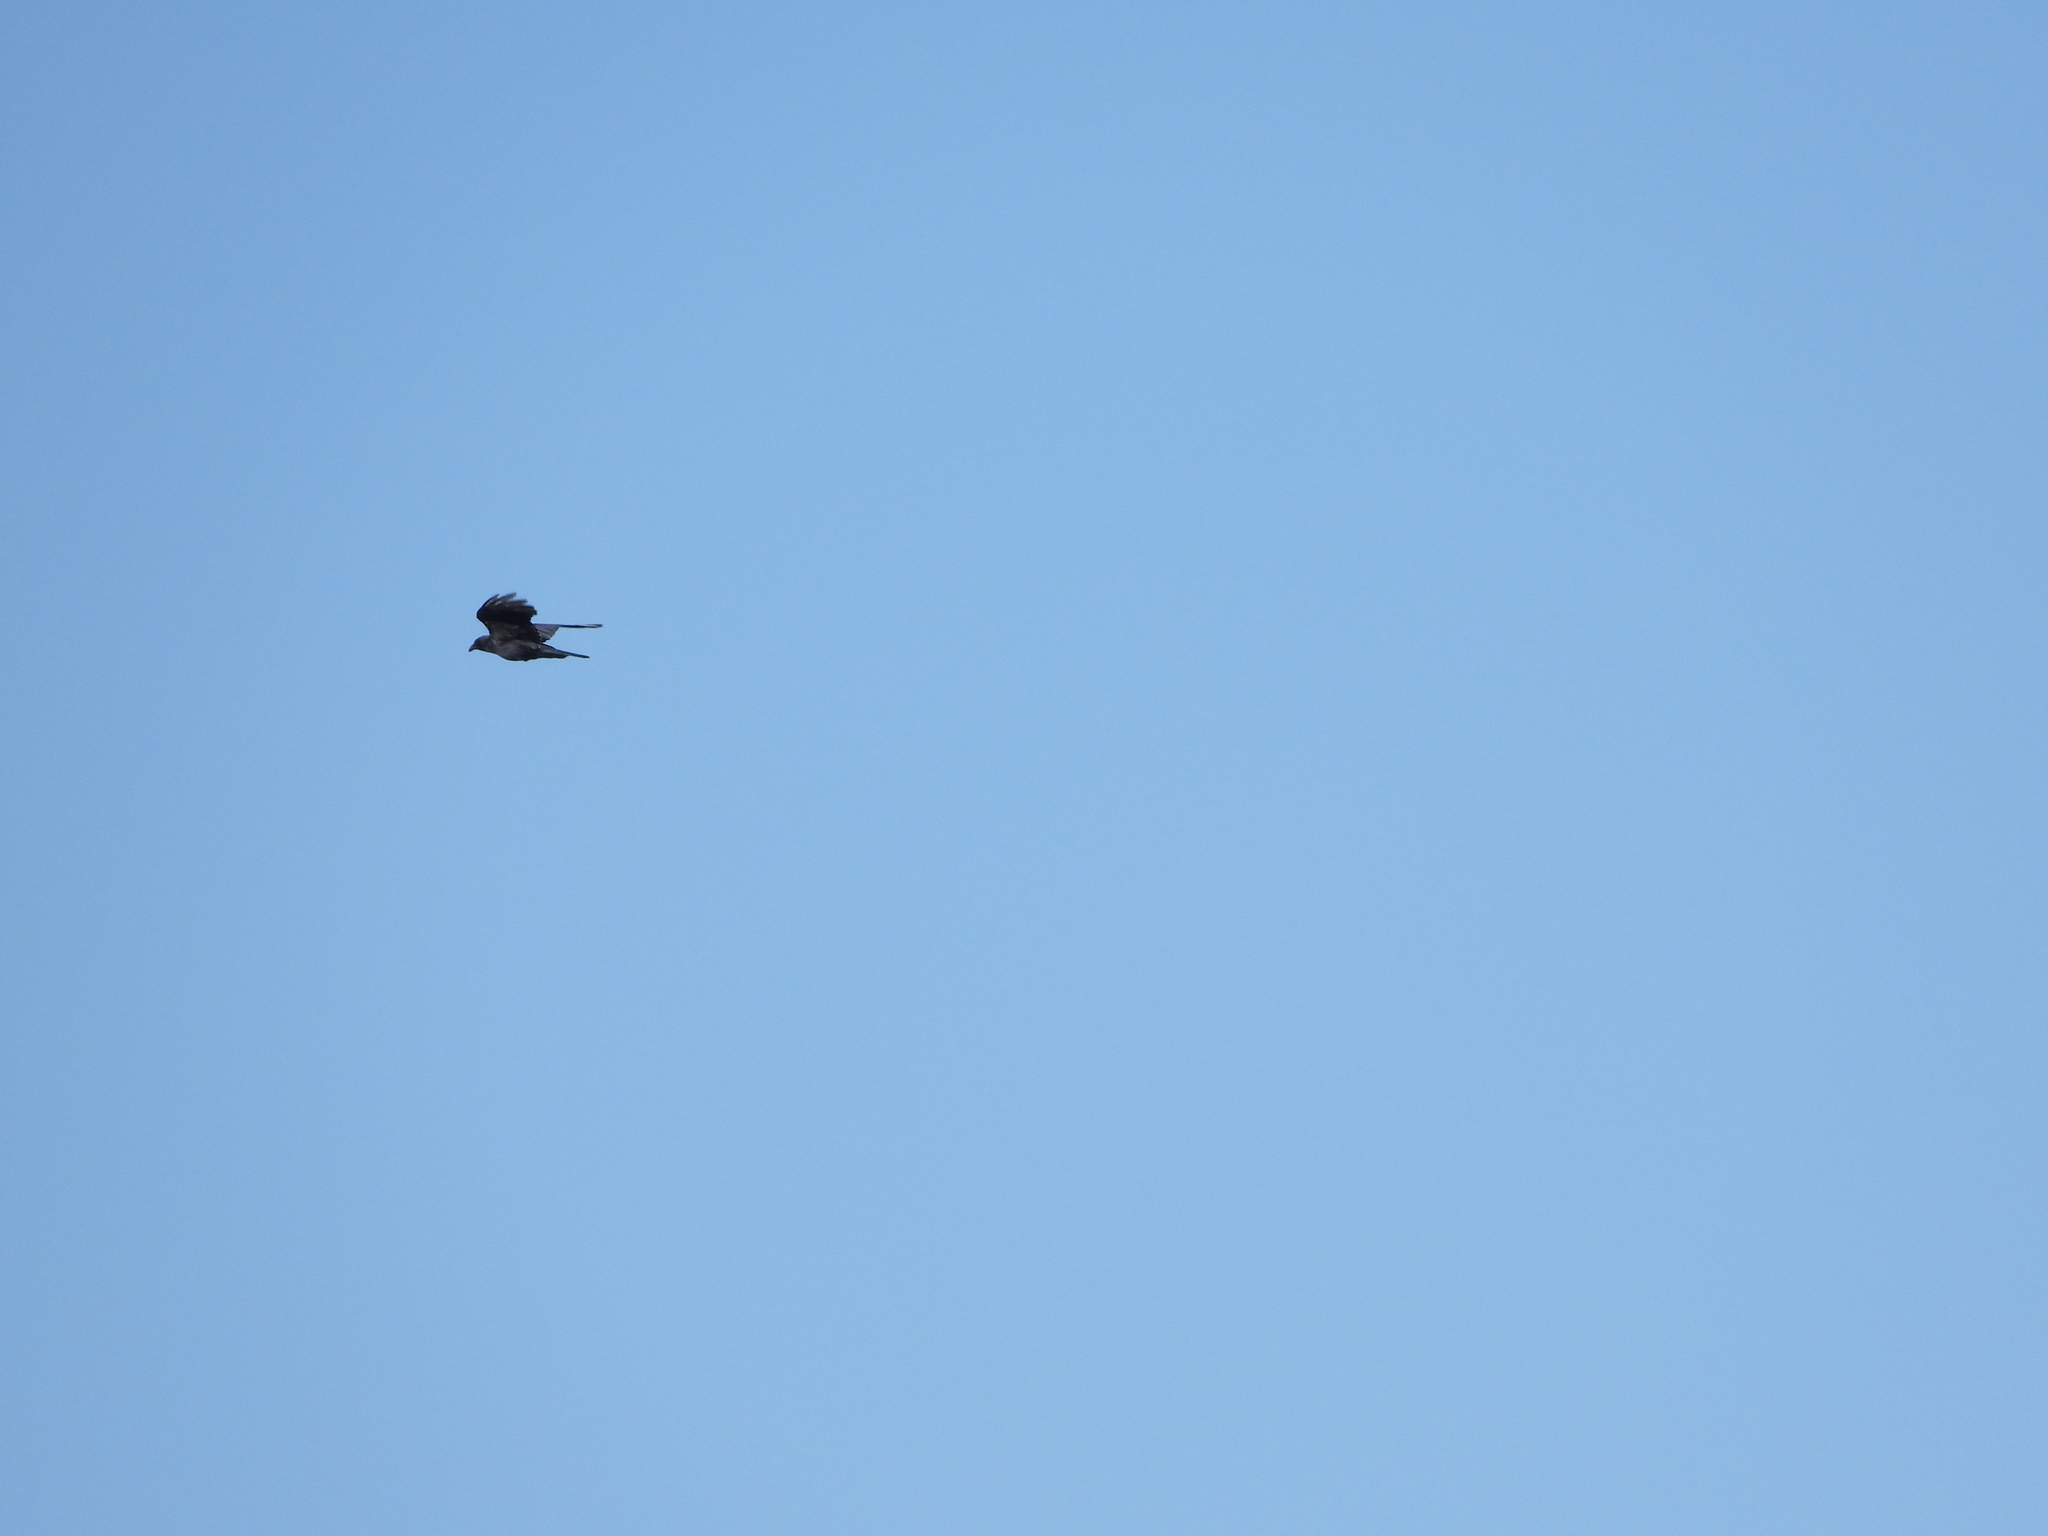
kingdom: Animalia
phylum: Chordata
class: Aves
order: Passeriformes
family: Corvidae
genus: Corvus
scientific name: Corvus brachyrhynchos
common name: American crow
